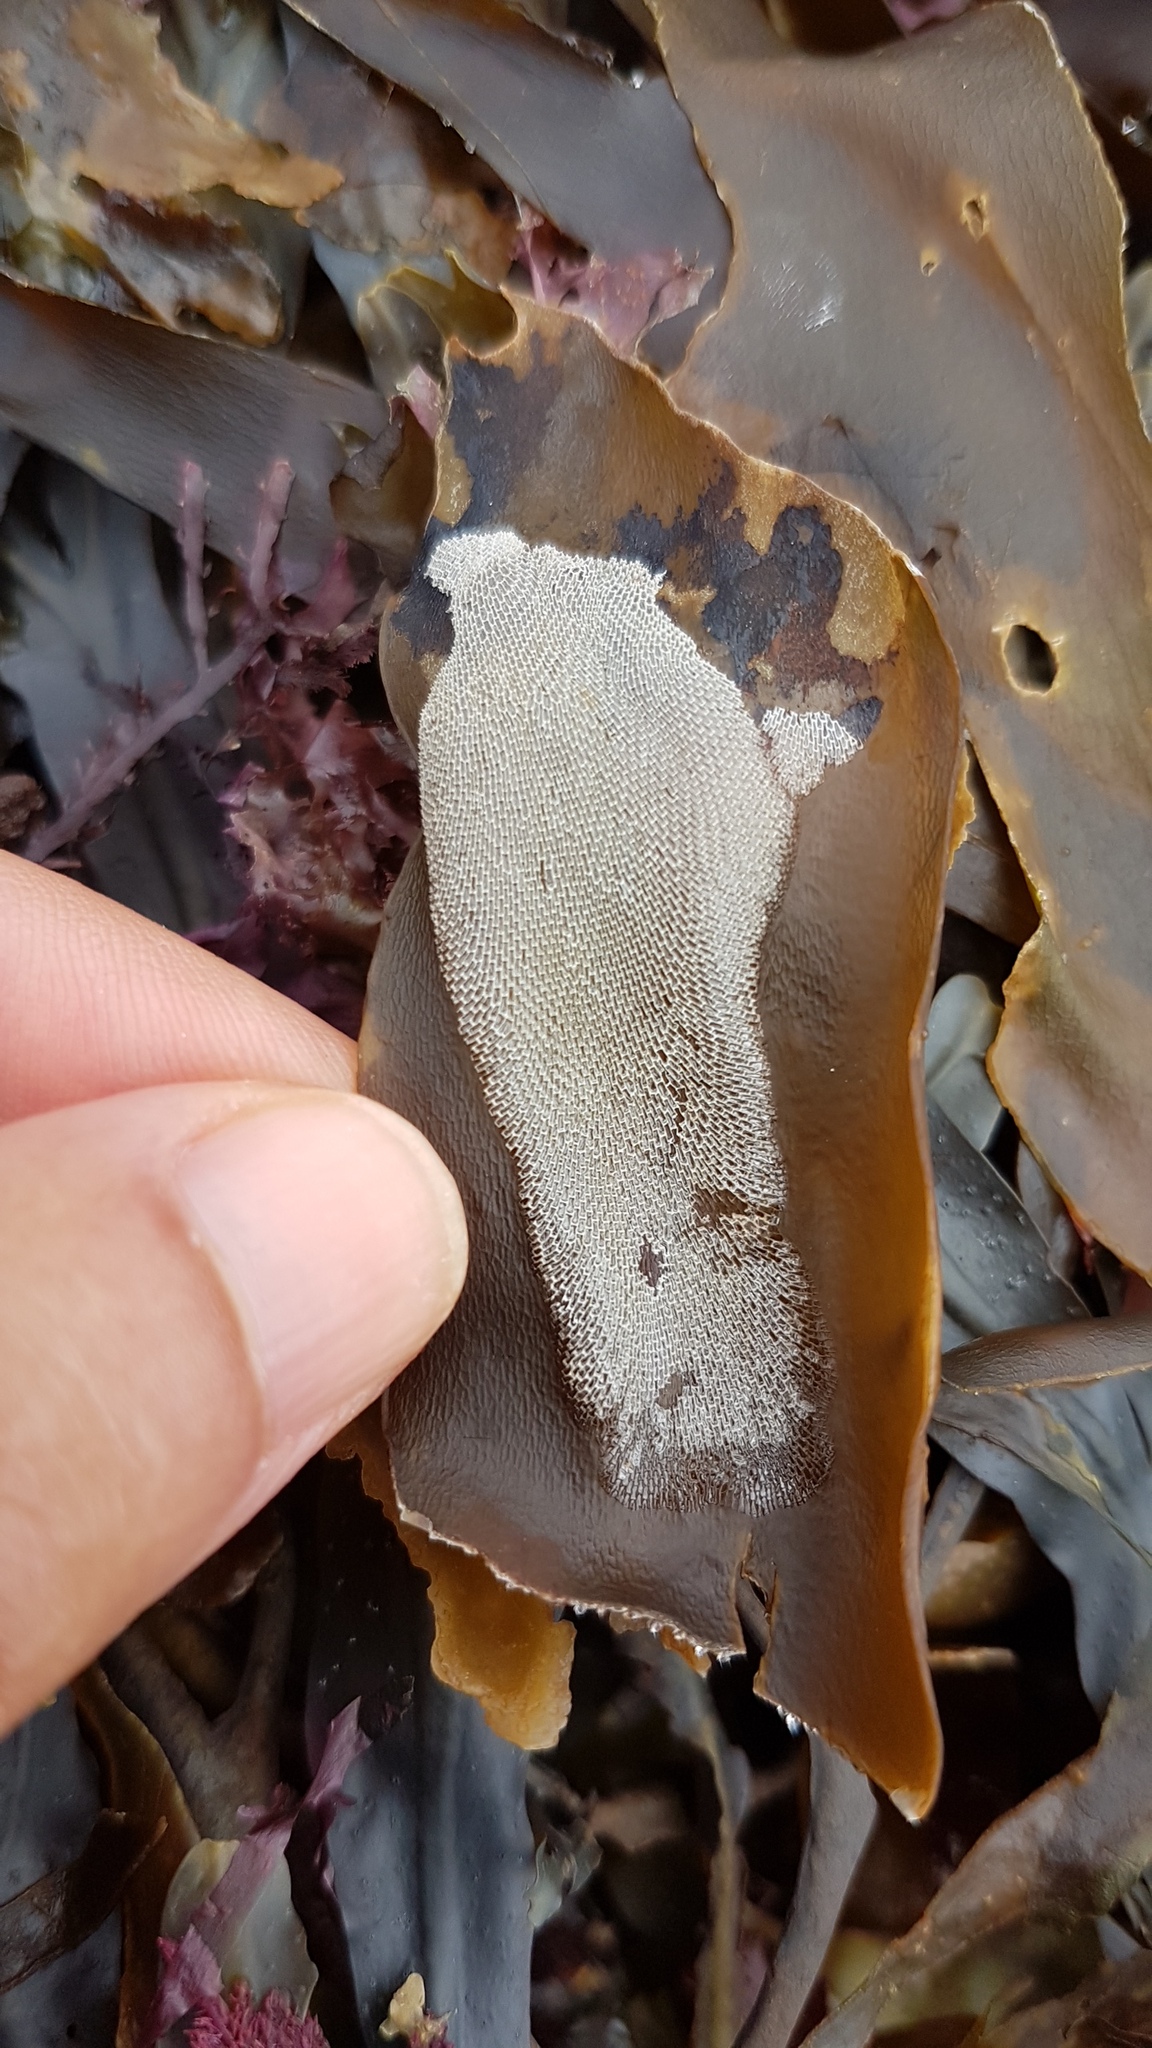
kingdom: Animalia
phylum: Bryozoa
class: Gymnolaemata
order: Cheilostomatida
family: Membraniporidae
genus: Membranipora
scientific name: Membranipora membranacea
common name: Sea mat
